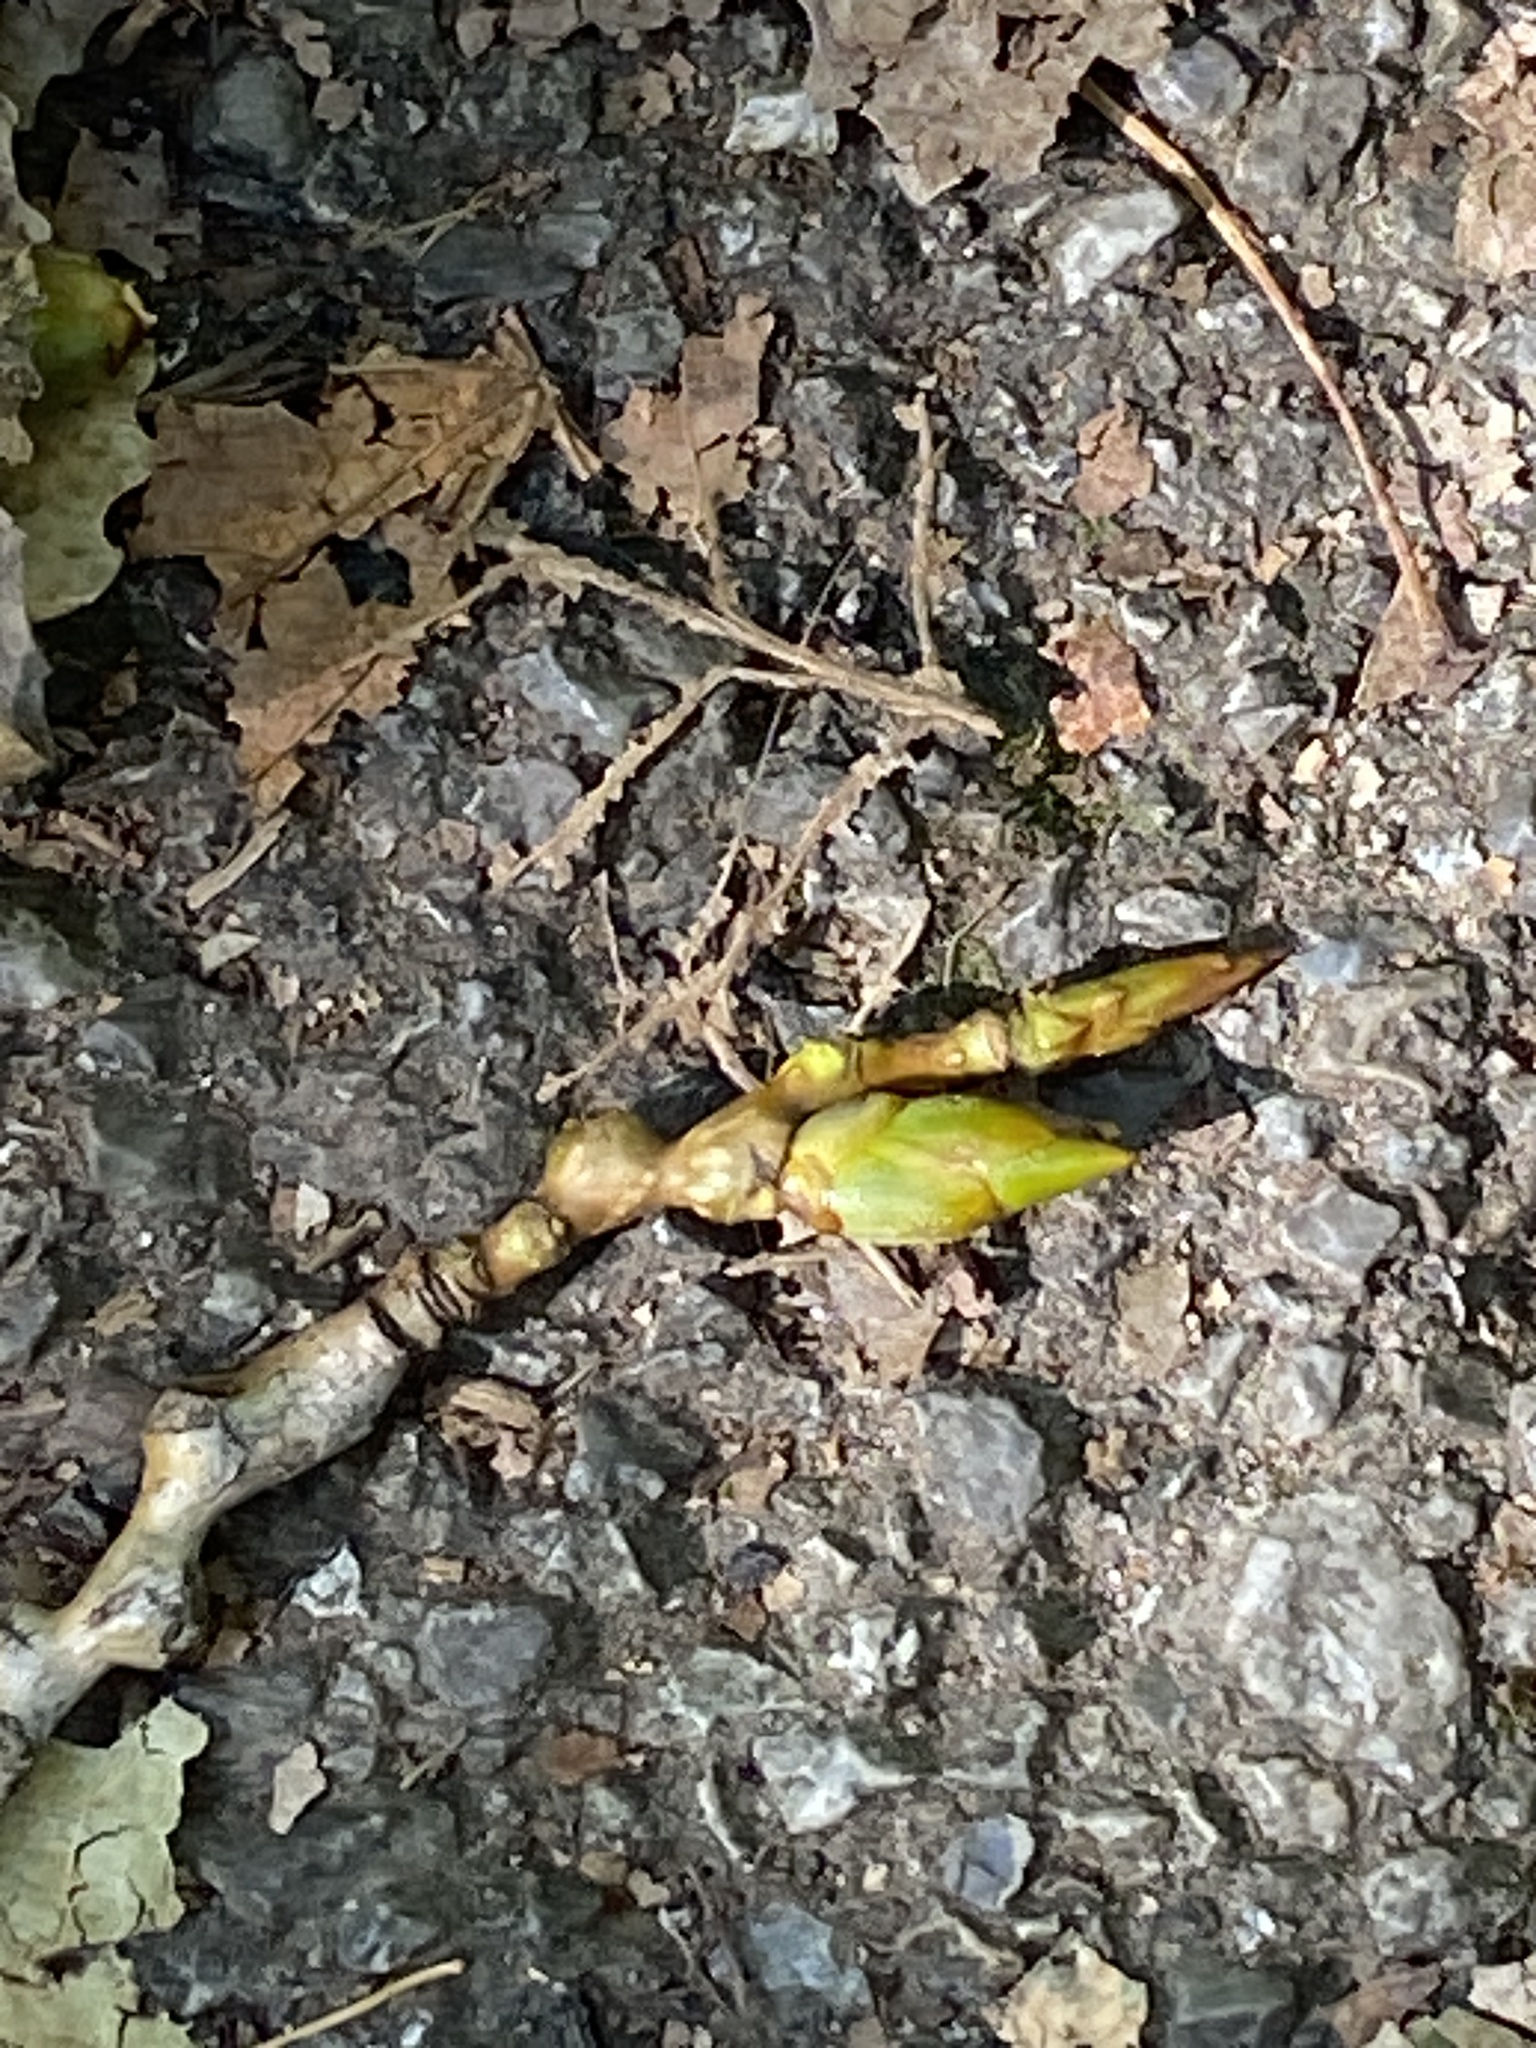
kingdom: Plantae
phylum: Tracheophyta
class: Magnoliopsida
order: Malpighiales
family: Salicaceae
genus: Populus
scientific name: Populus deltoides
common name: Eastern cottonwood
